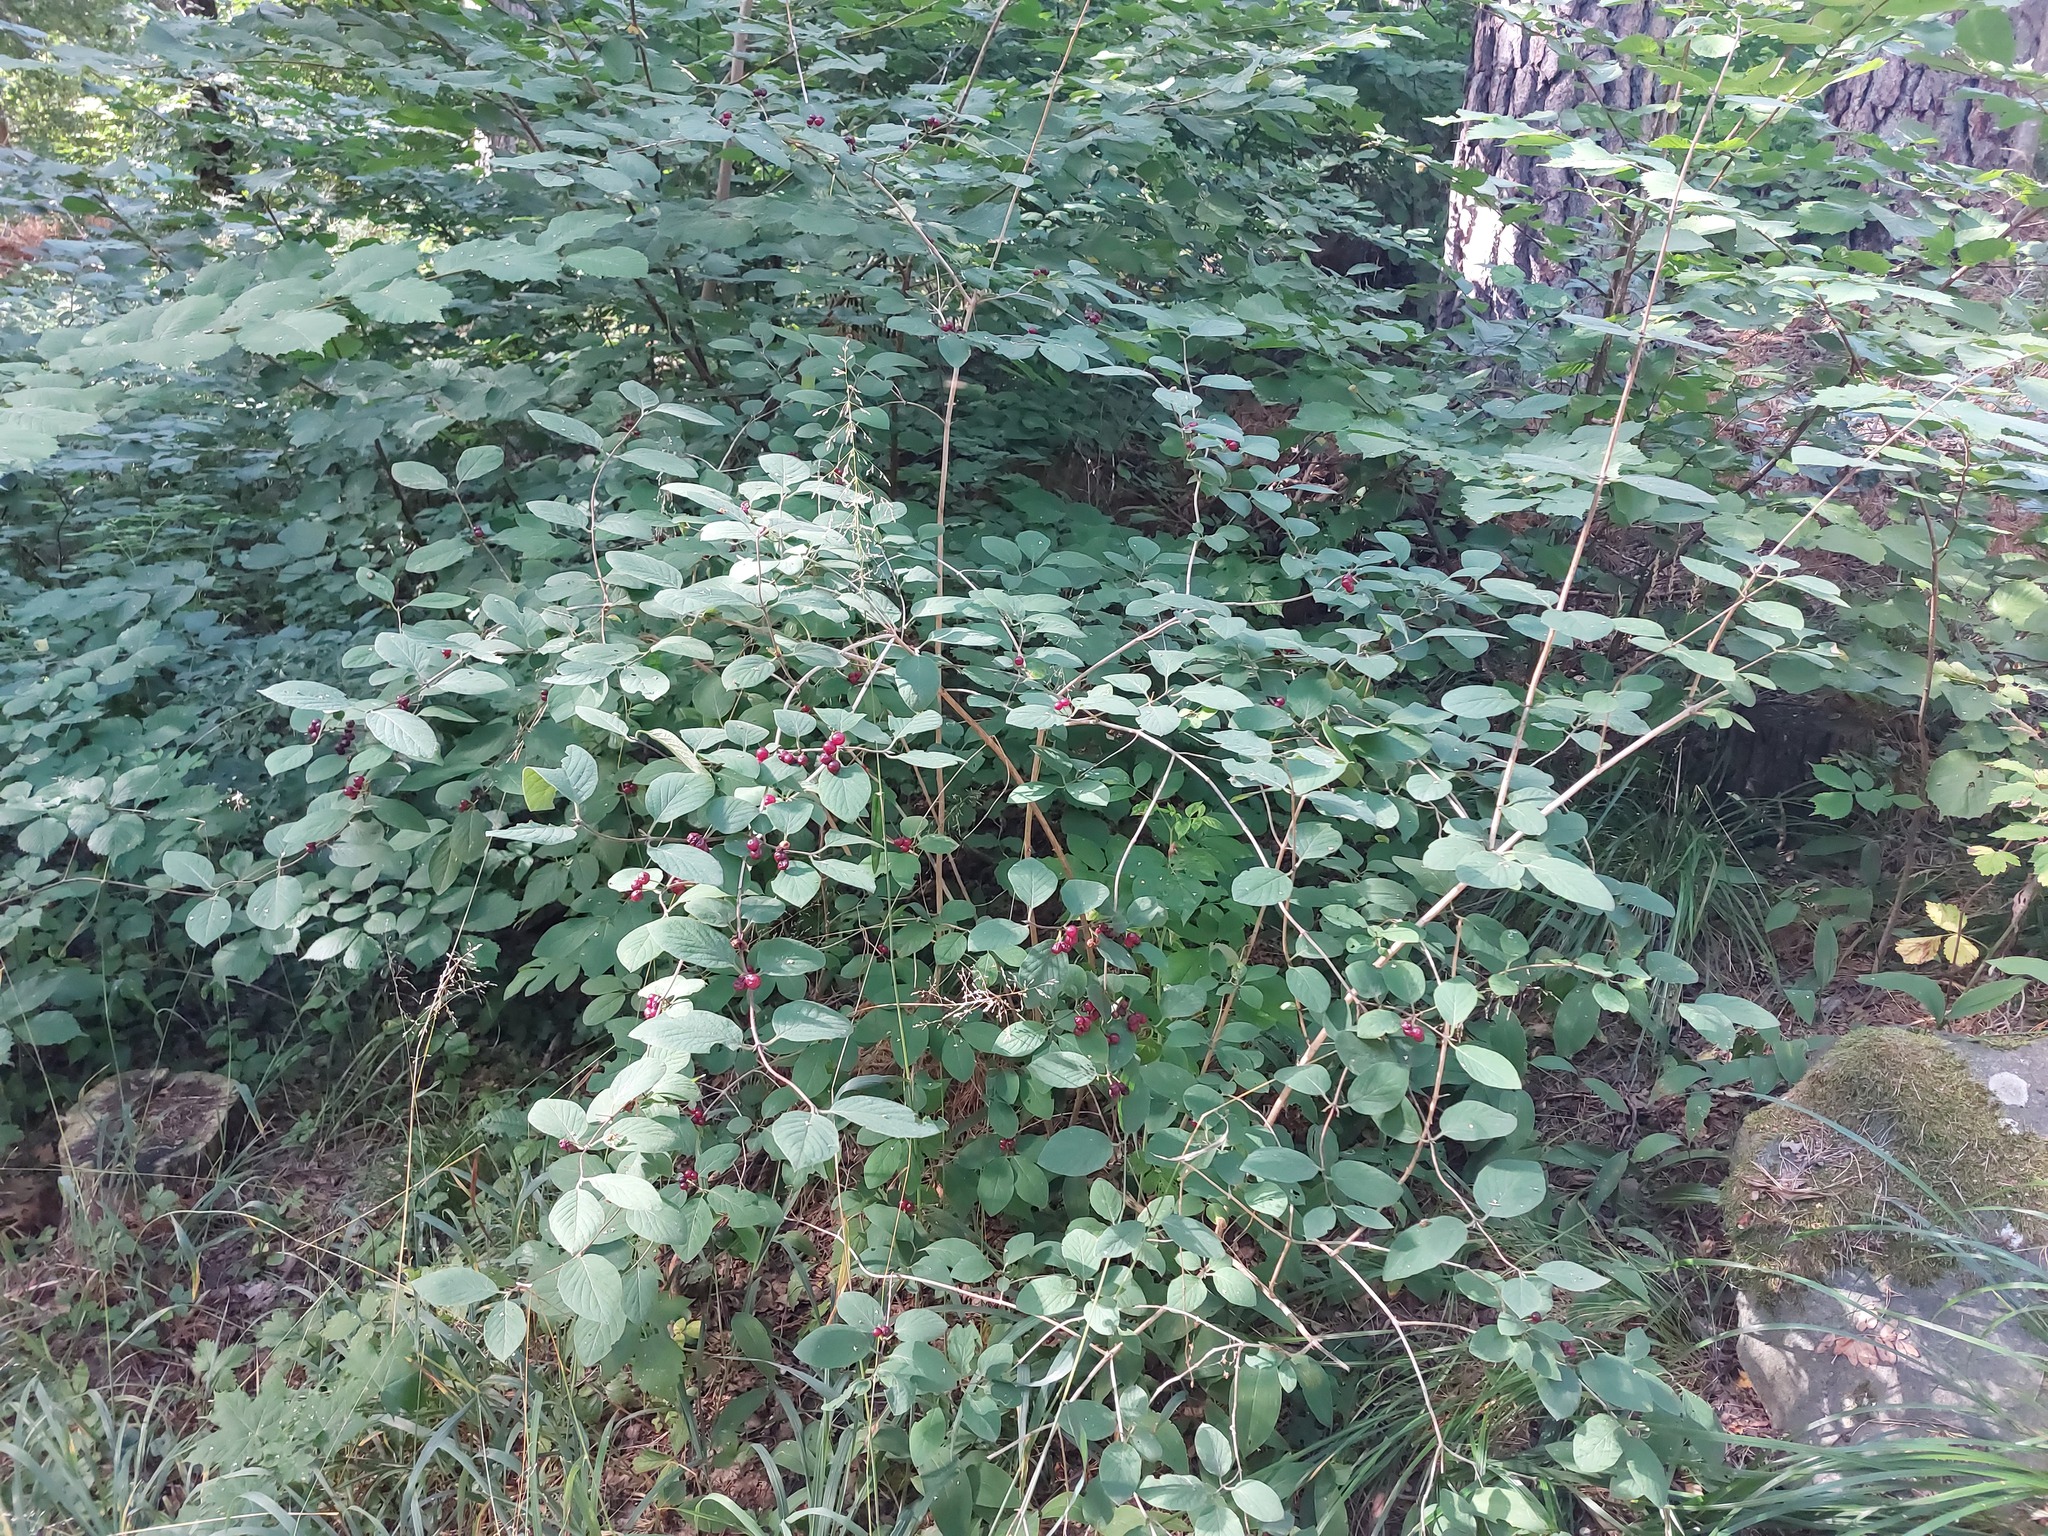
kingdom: Plantae
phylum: Tracheophyta
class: Magnoliopsida
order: Dipsacales
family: Caprifoliaceae
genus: Lonicera
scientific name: Lonicera xylosteum
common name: Fly honeysuckle
